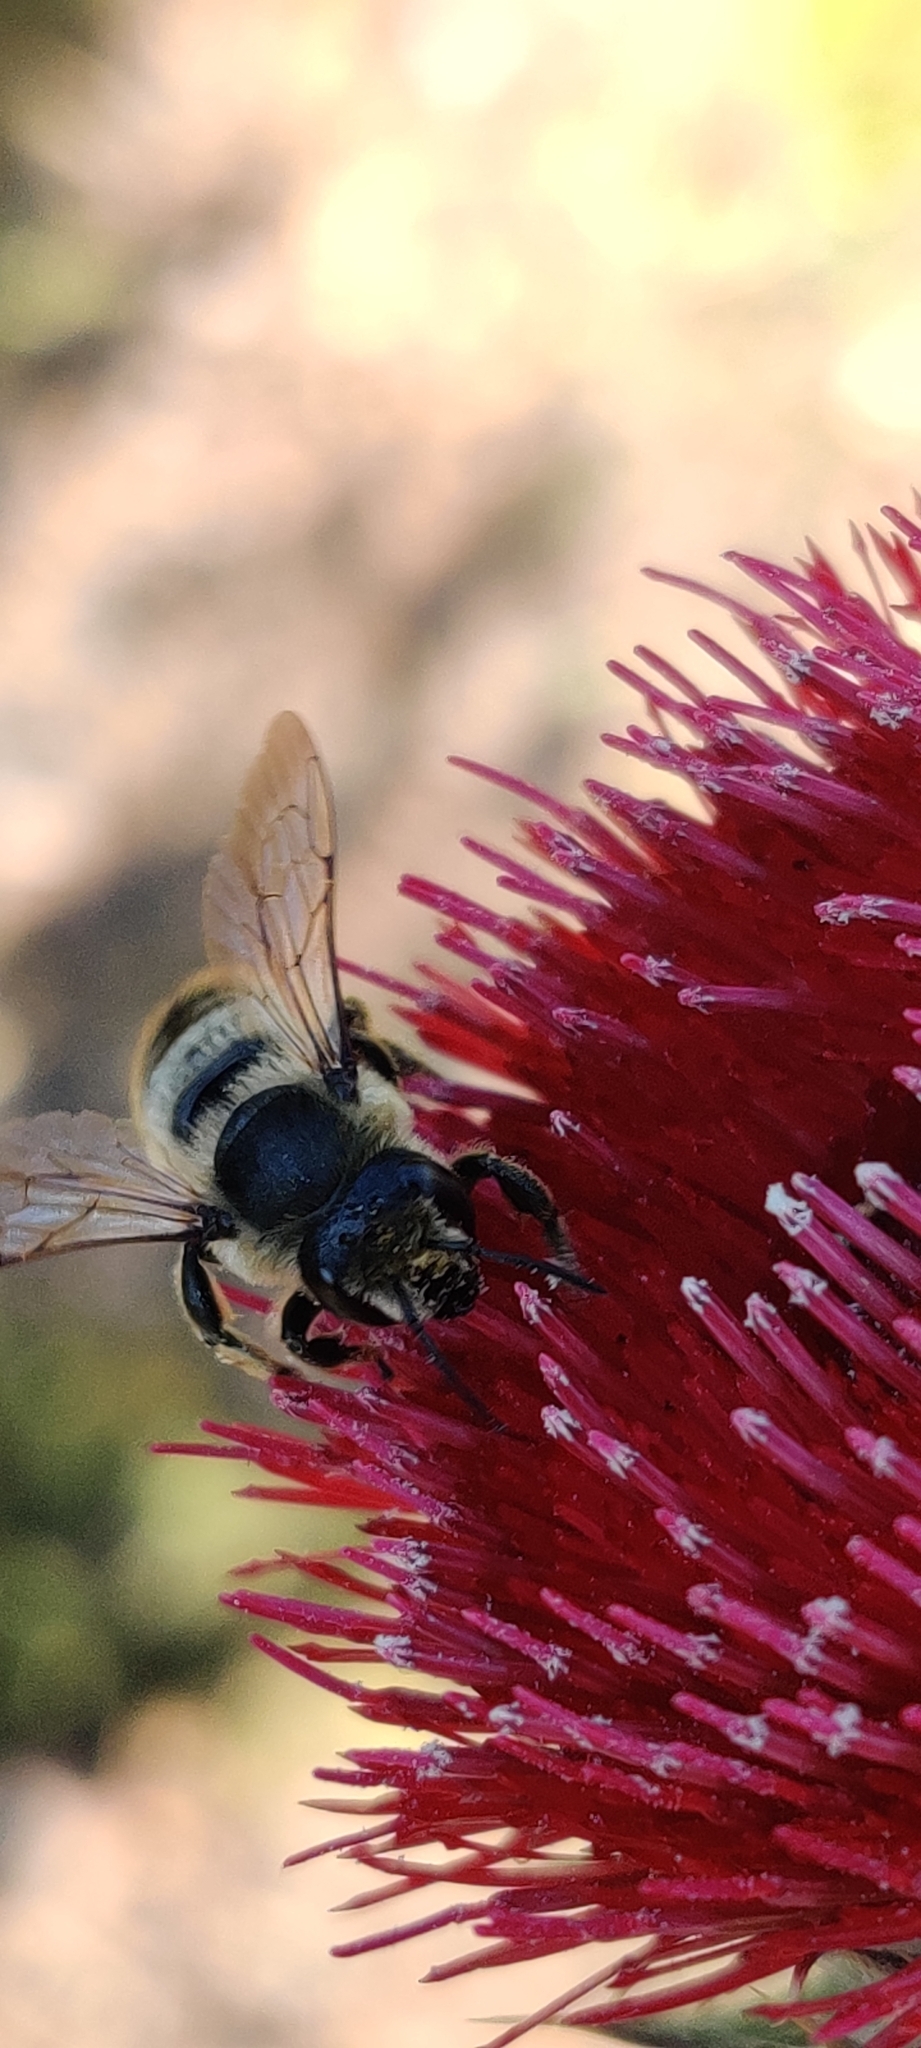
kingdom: Animalia
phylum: Arthropoda
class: Insecta
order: Hymenoptera
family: Megachilidae
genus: Megachile
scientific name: Megachile perihirta
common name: Western leafcutter
